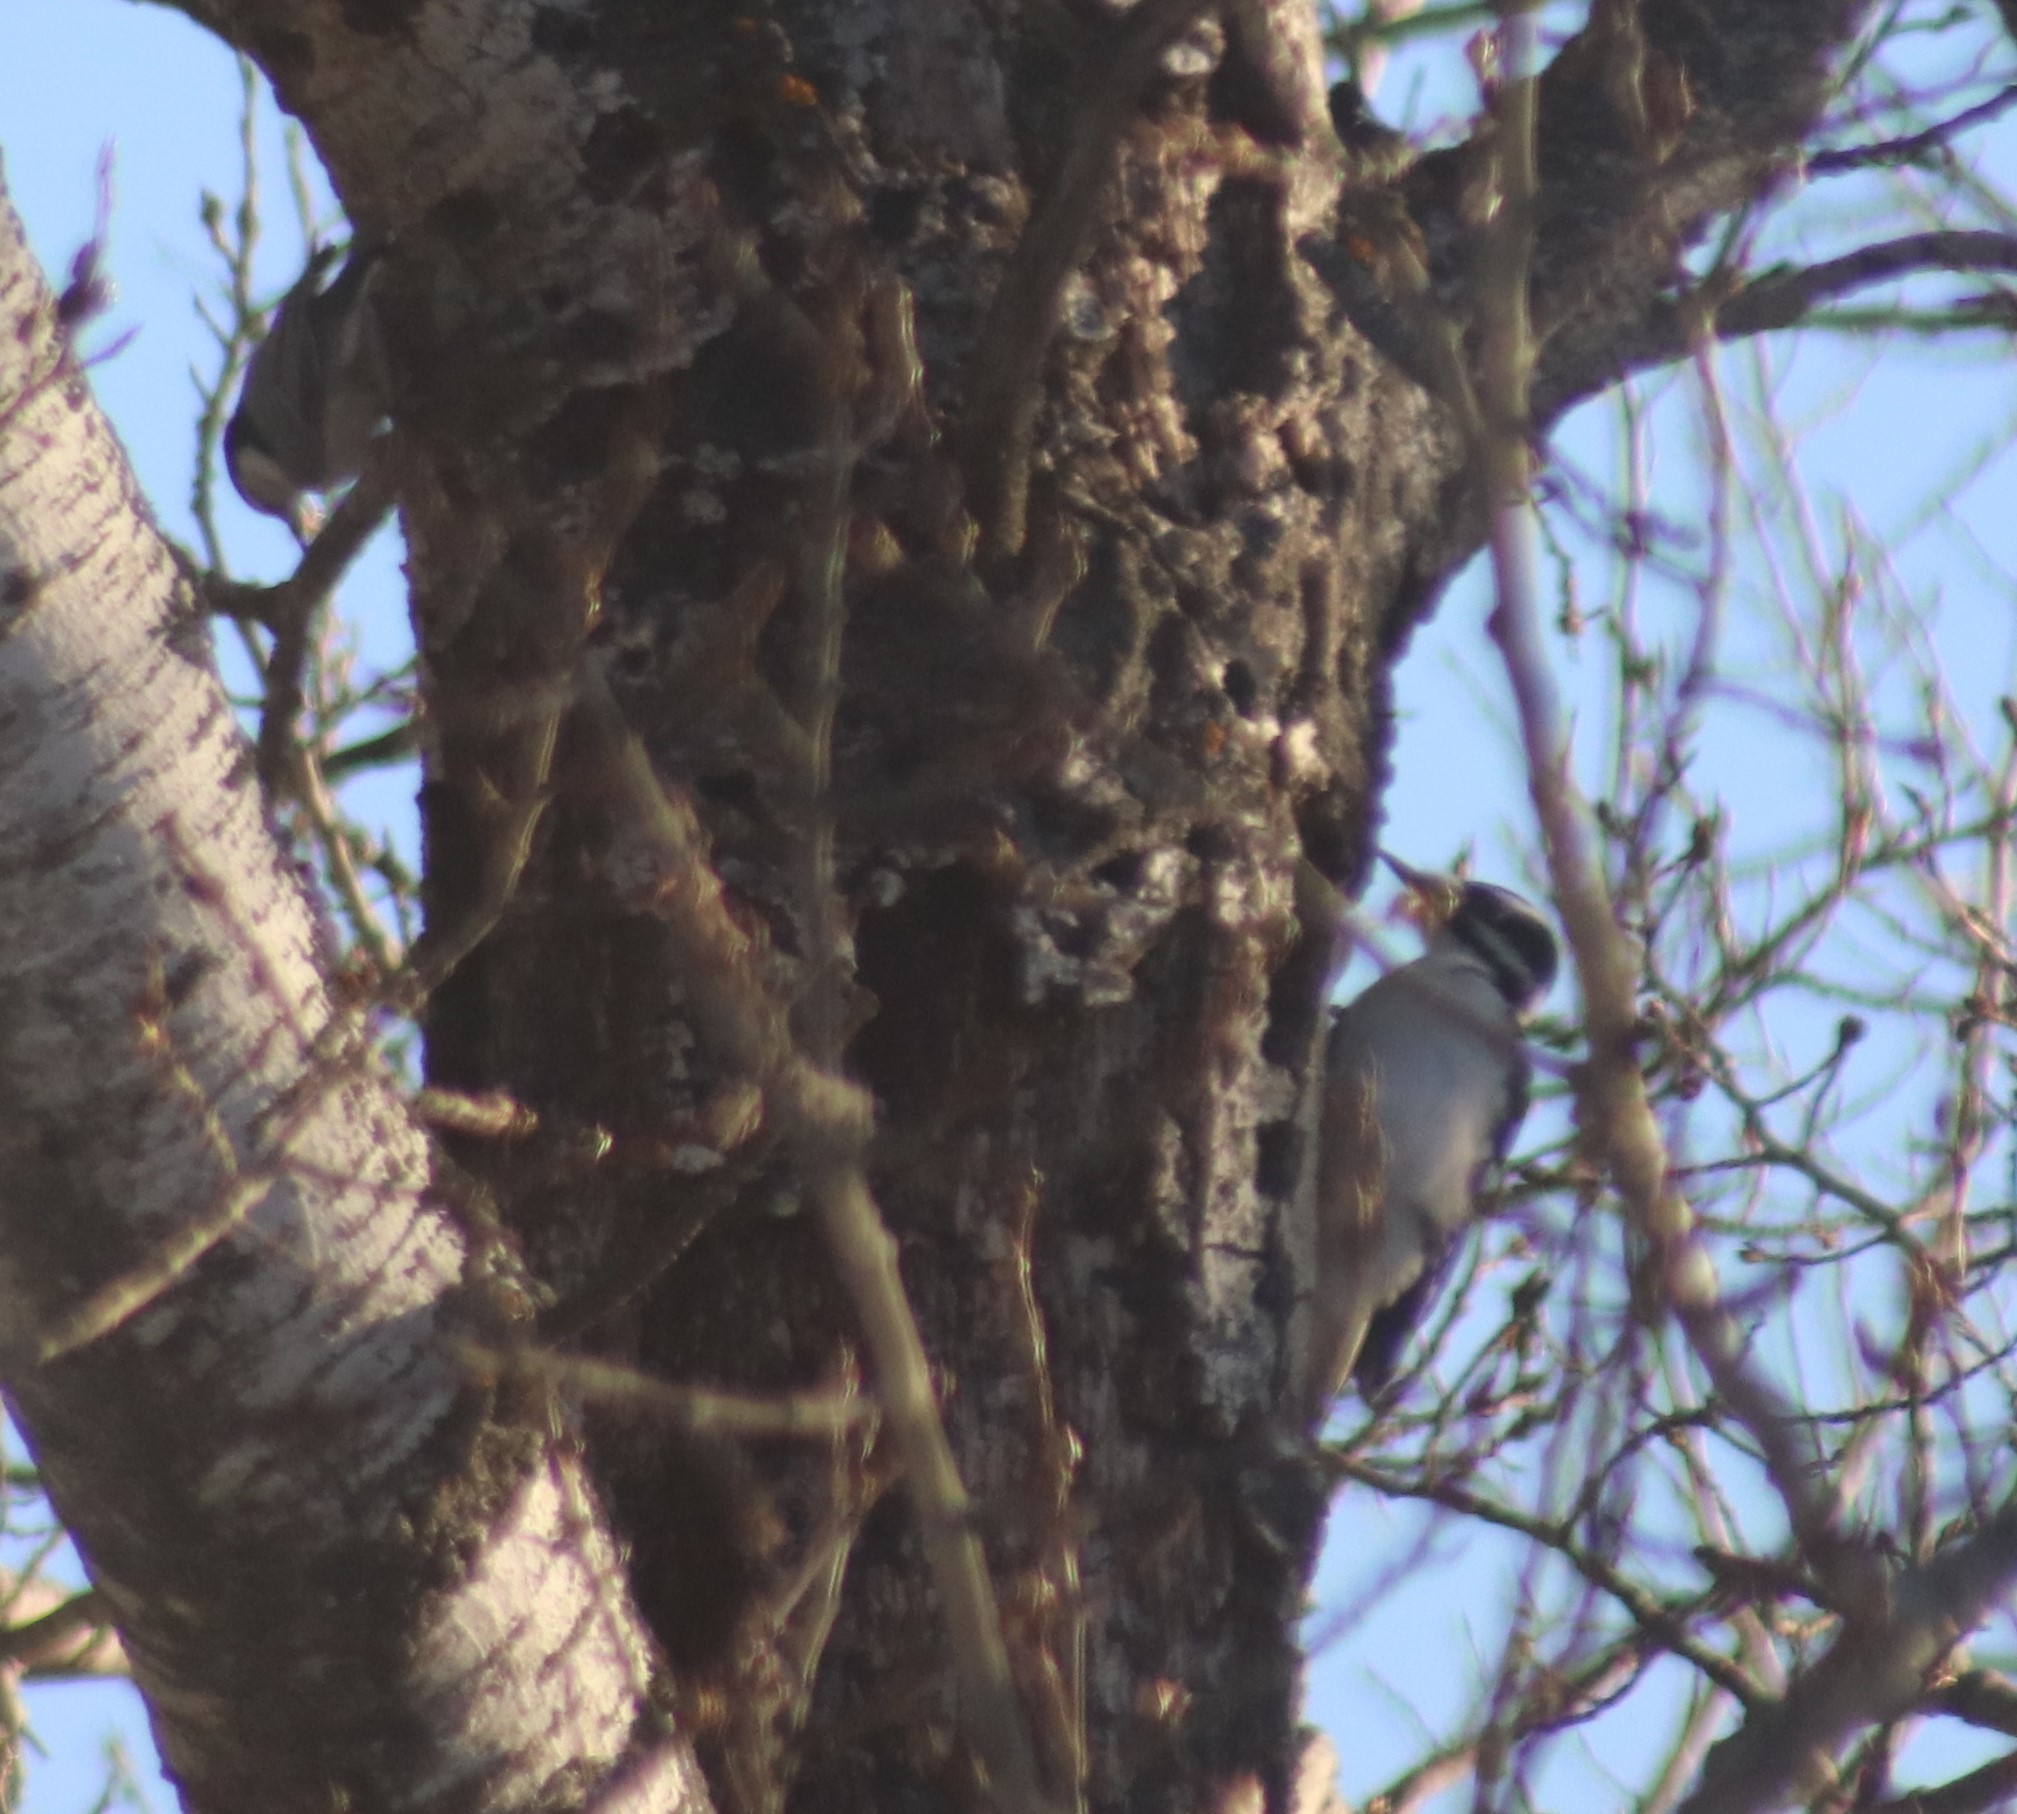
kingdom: Animalia
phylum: Chordata
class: Aves
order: Piciformes
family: Picidae
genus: Leuconotopicus
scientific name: Leuconotopicus villosus
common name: Hairy woodpecker
